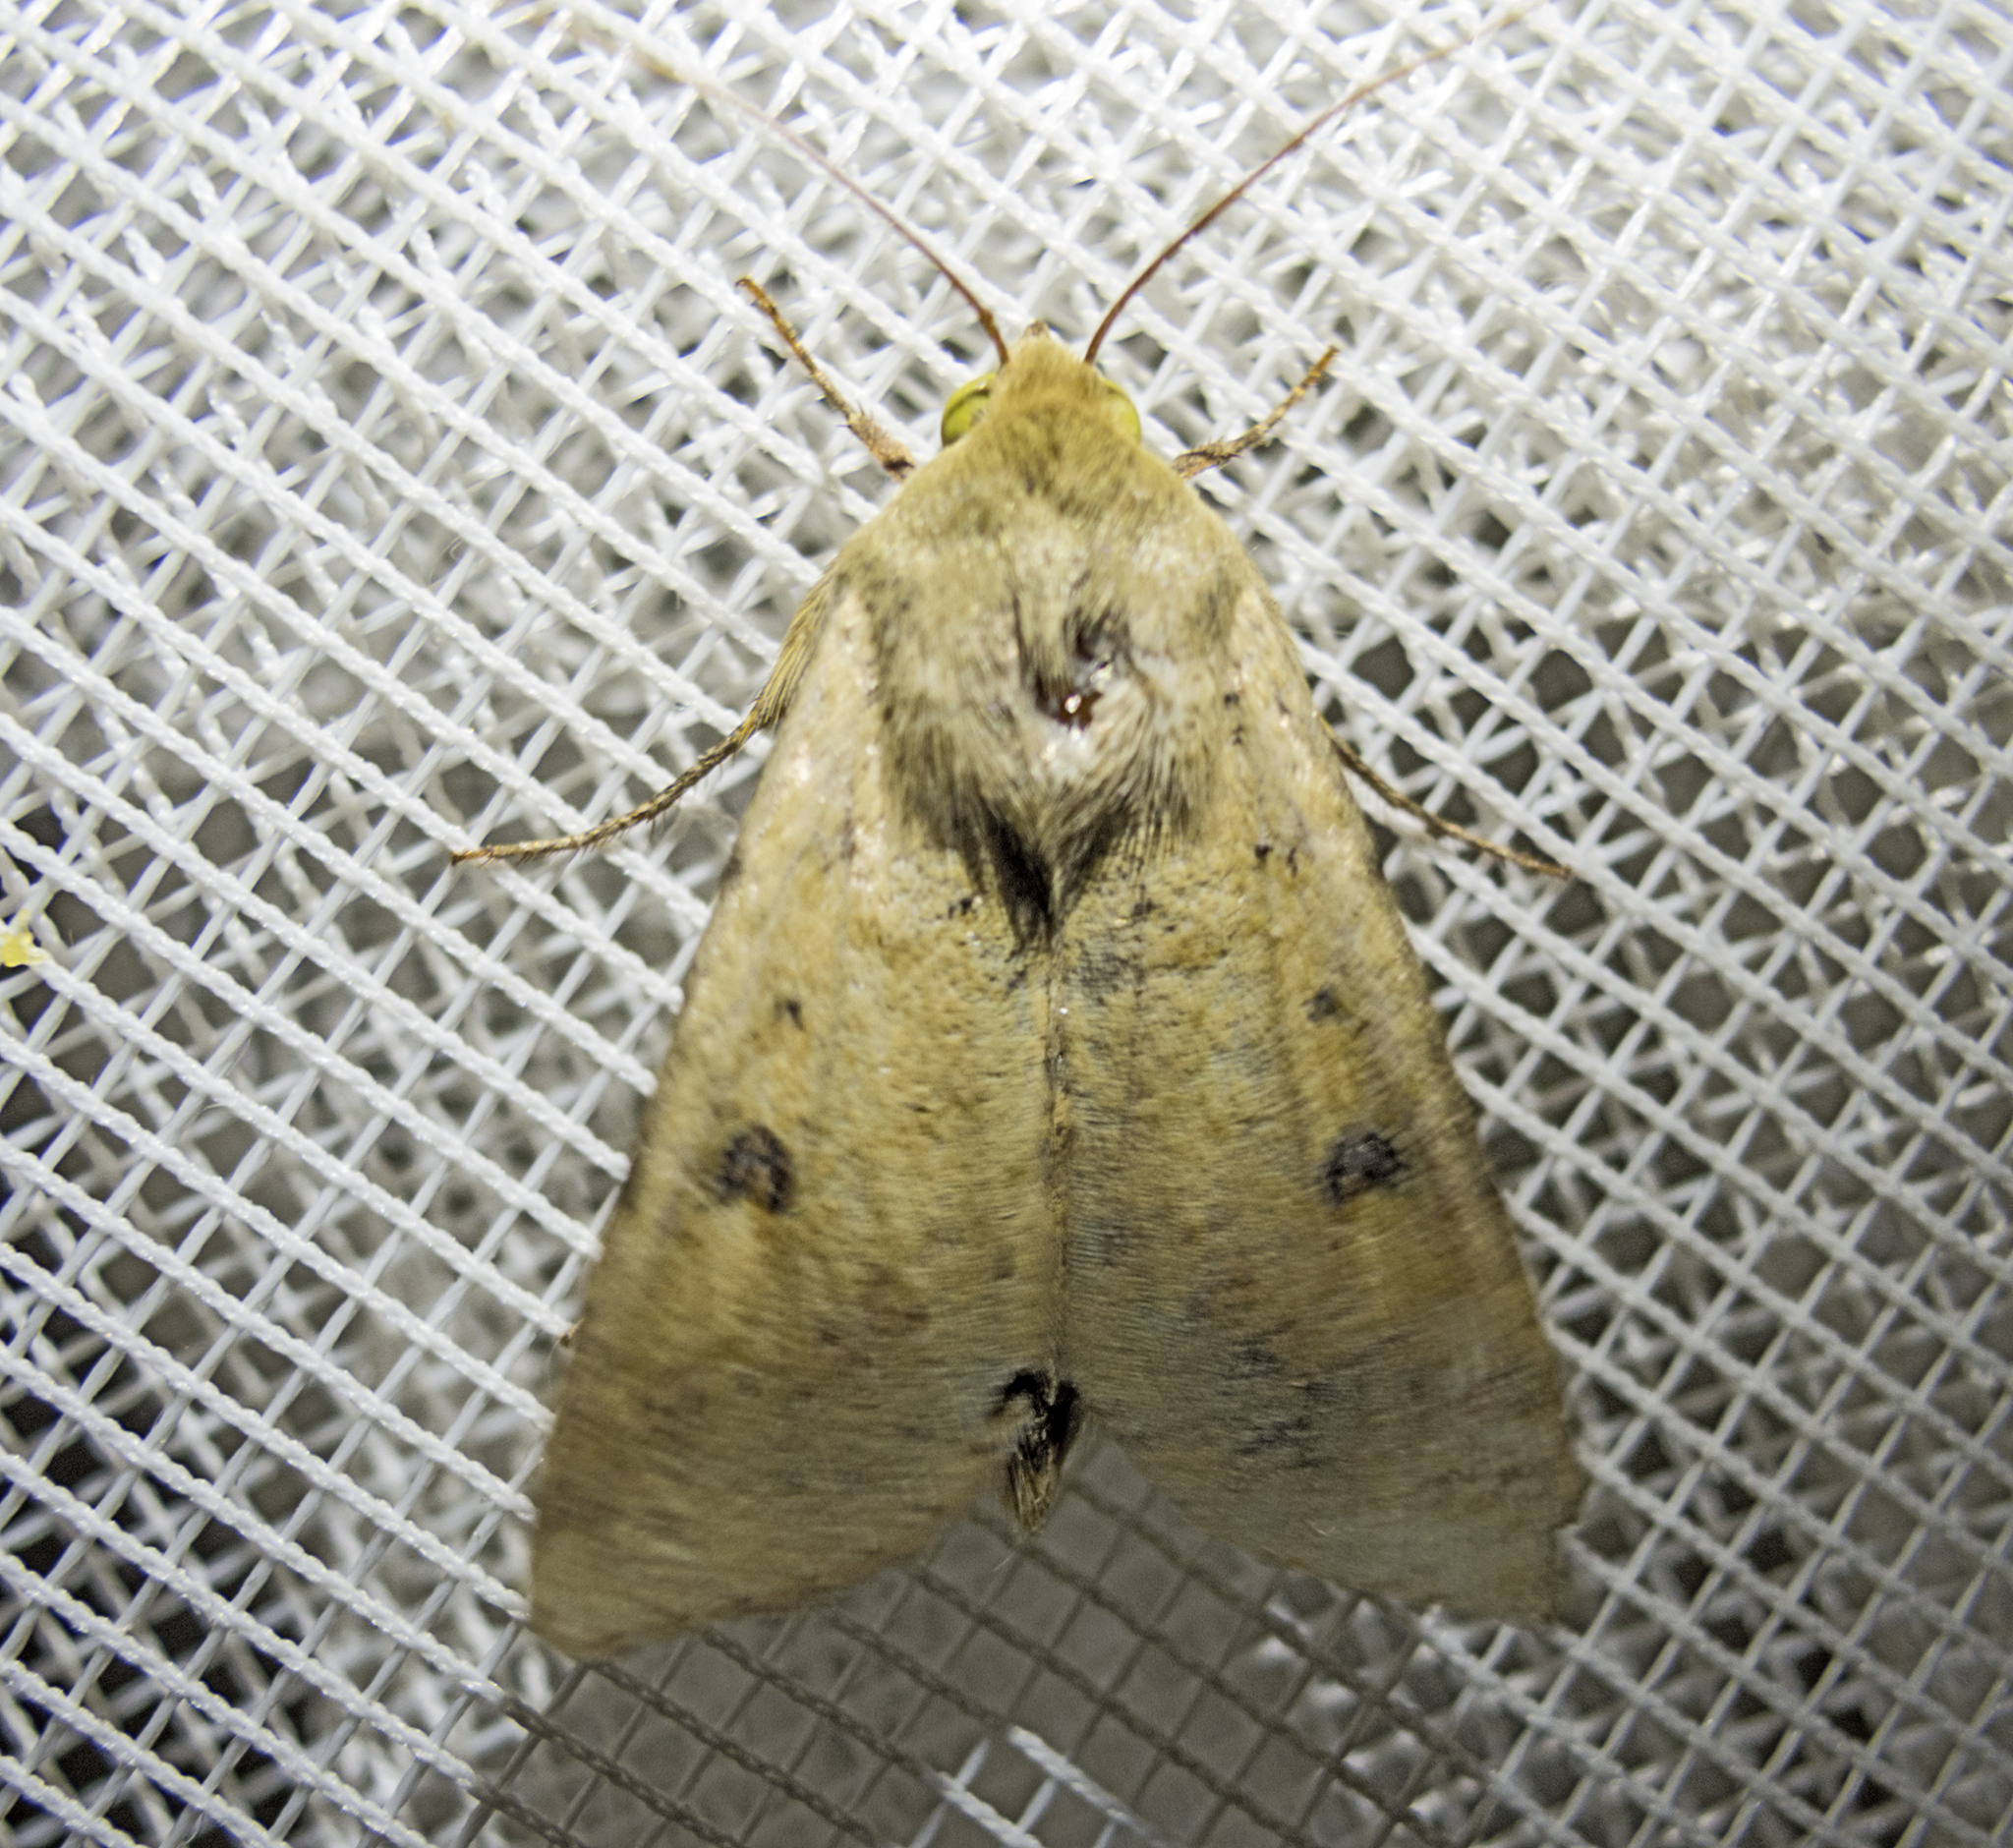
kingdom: Animalia
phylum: Arthropoda
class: Insecta
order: Lepidoptera
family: Noctuidae
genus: Helicoverpa
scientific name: Helicoverpa armigera
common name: Cotton bollworm
